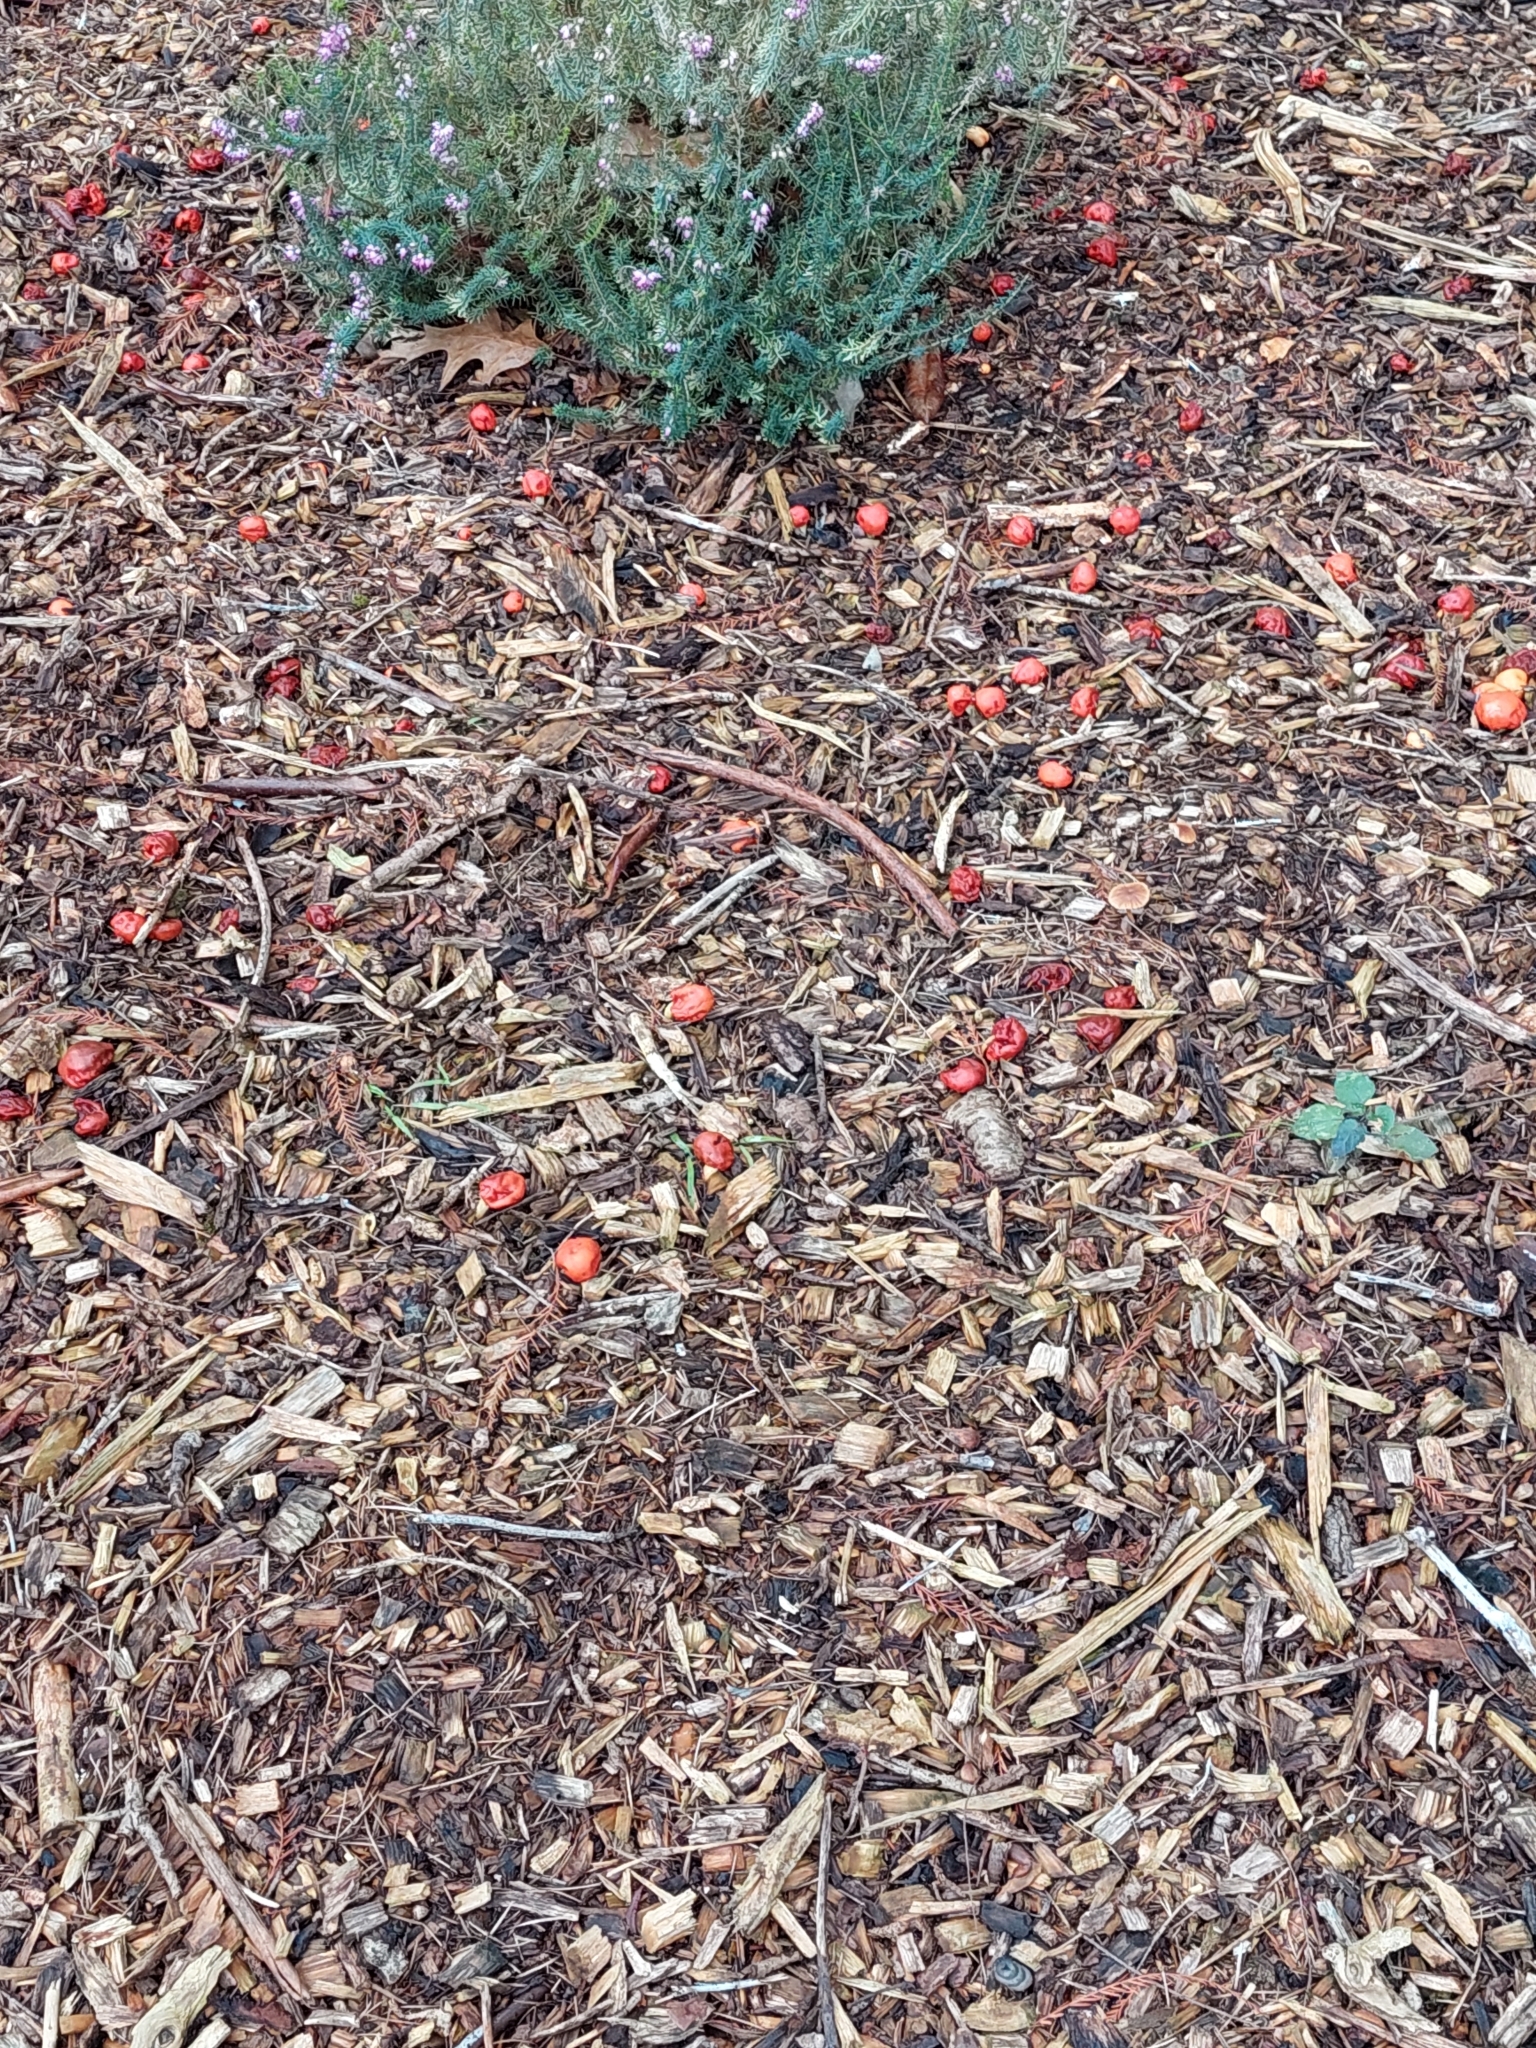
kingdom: Fungi
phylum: Basidiomycota
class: Agaricomycetes
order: Agaricales
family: Strophariaceae
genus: Leratiomyces
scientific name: Leratiomyces erythrocephalus
